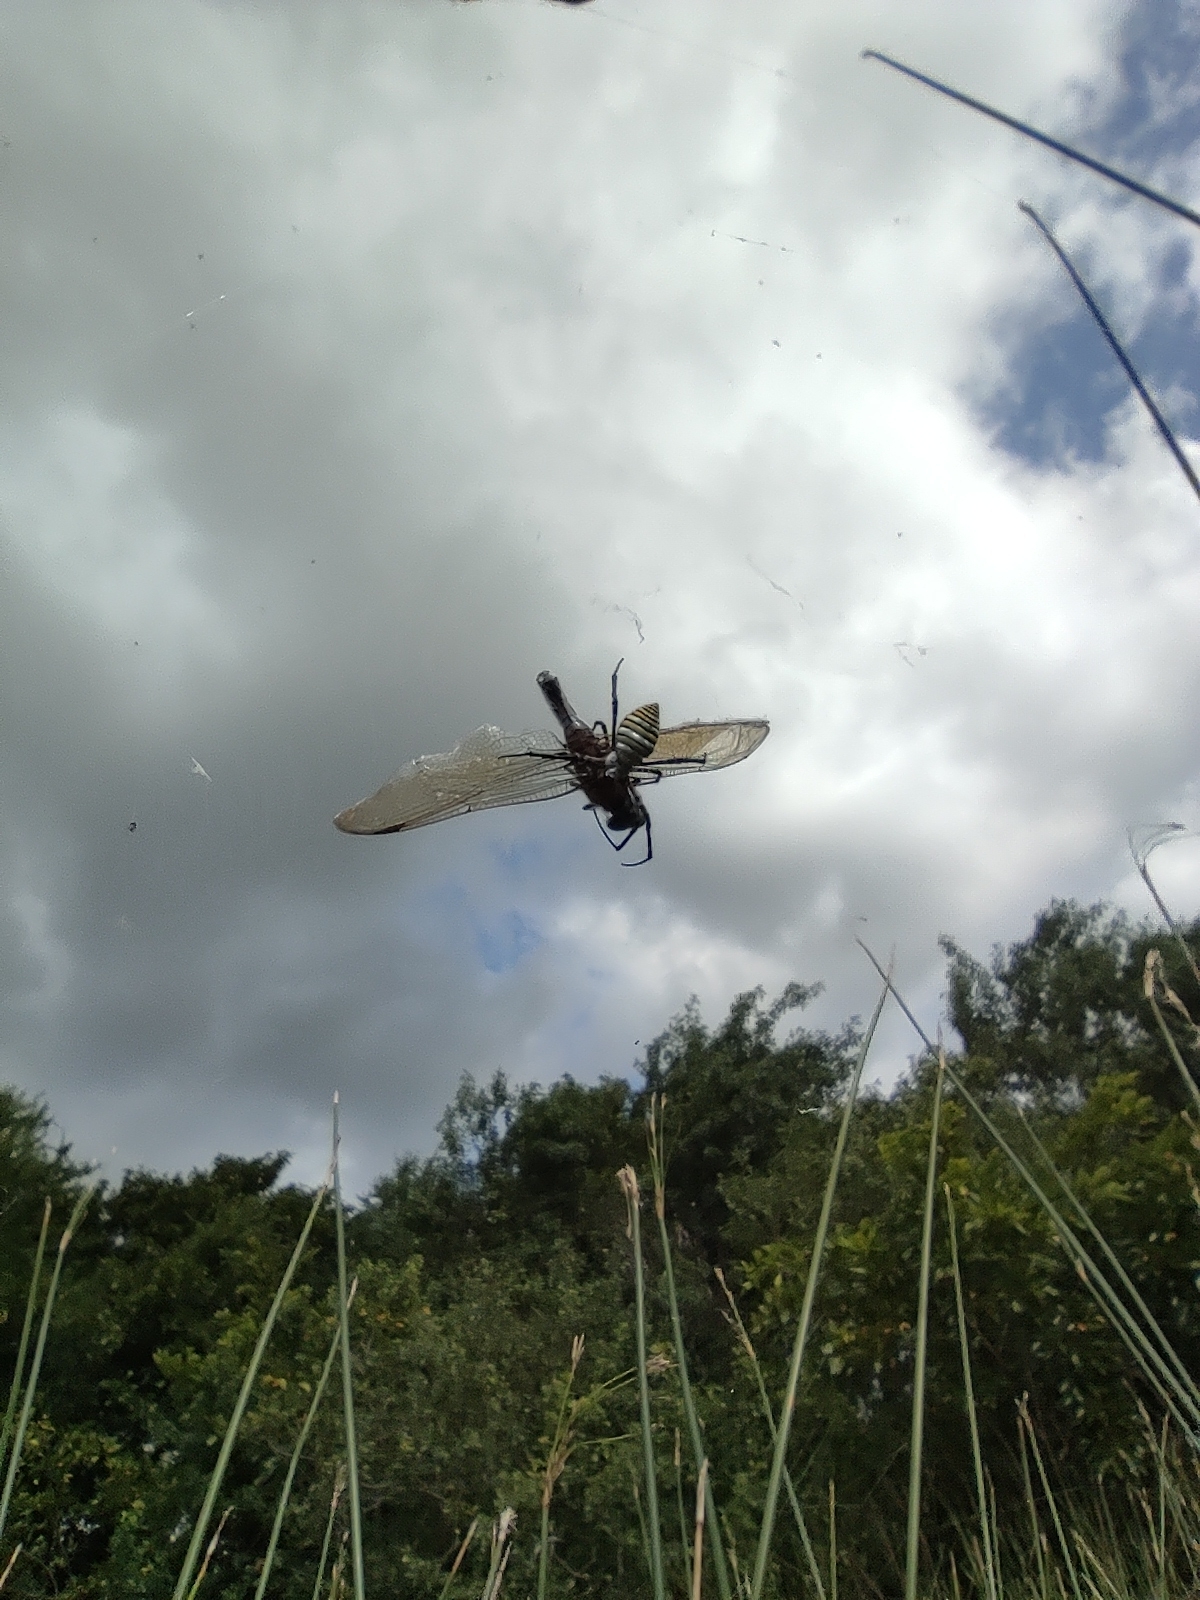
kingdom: Animalia
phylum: Arthropoda
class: Arachnida
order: Araneae
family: Araneidae
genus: Argiope
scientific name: Argiope trifasciata
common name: Banded garden spider
